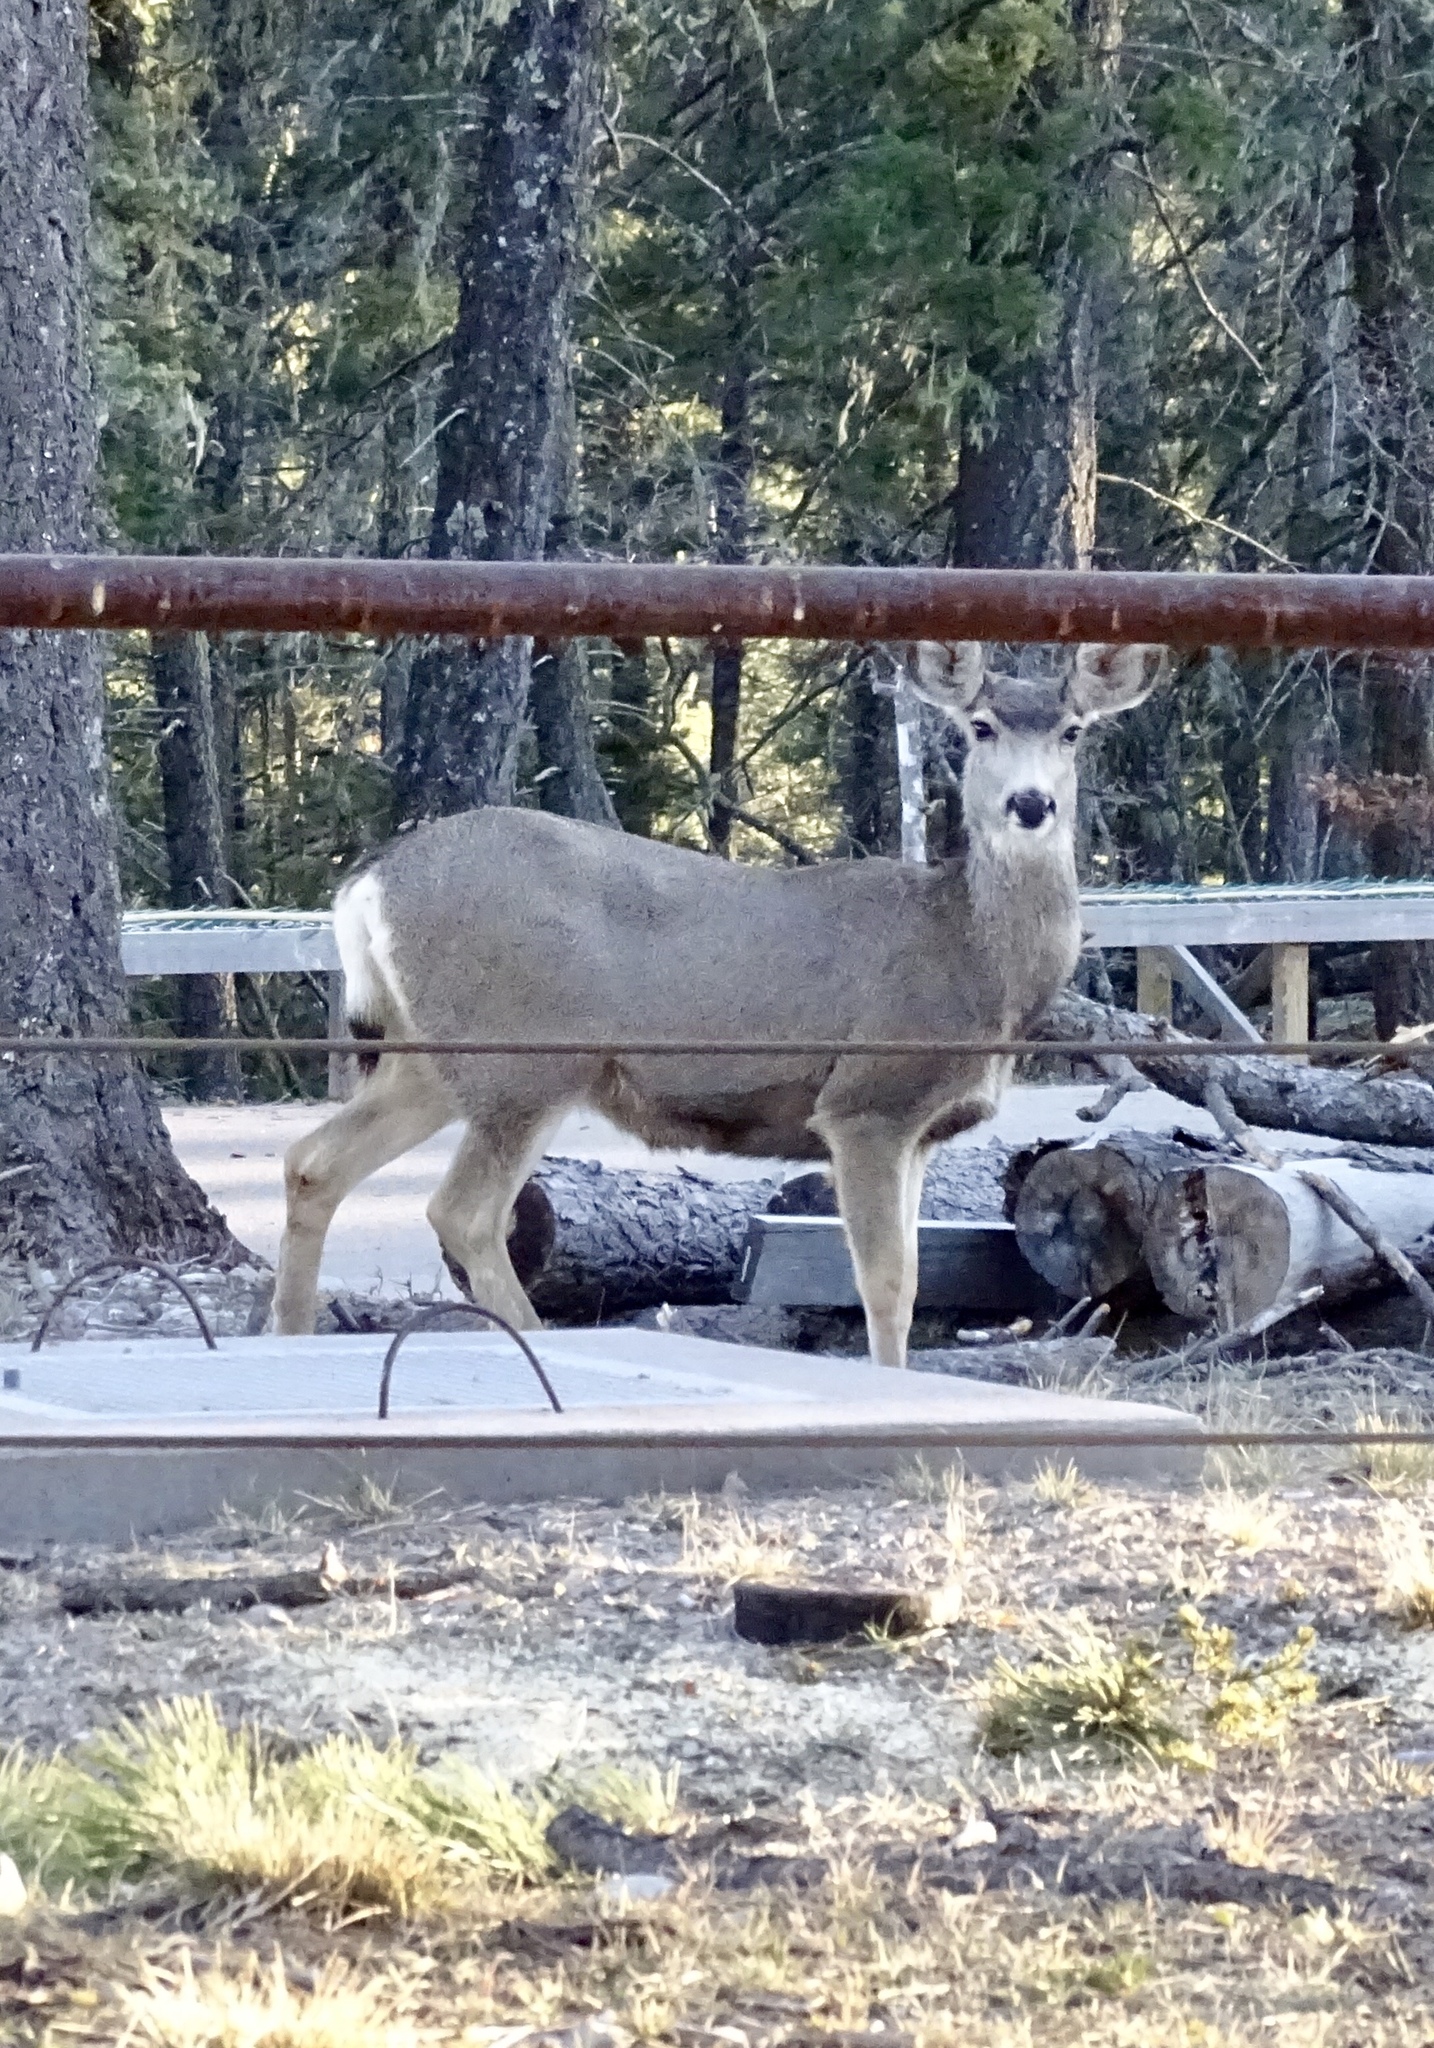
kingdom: Animalia
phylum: Chordata
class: Mammalia
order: Artiodactyla
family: Cervidae
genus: Odocoileus
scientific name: Odocoileus hemionus
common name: Mule deer
